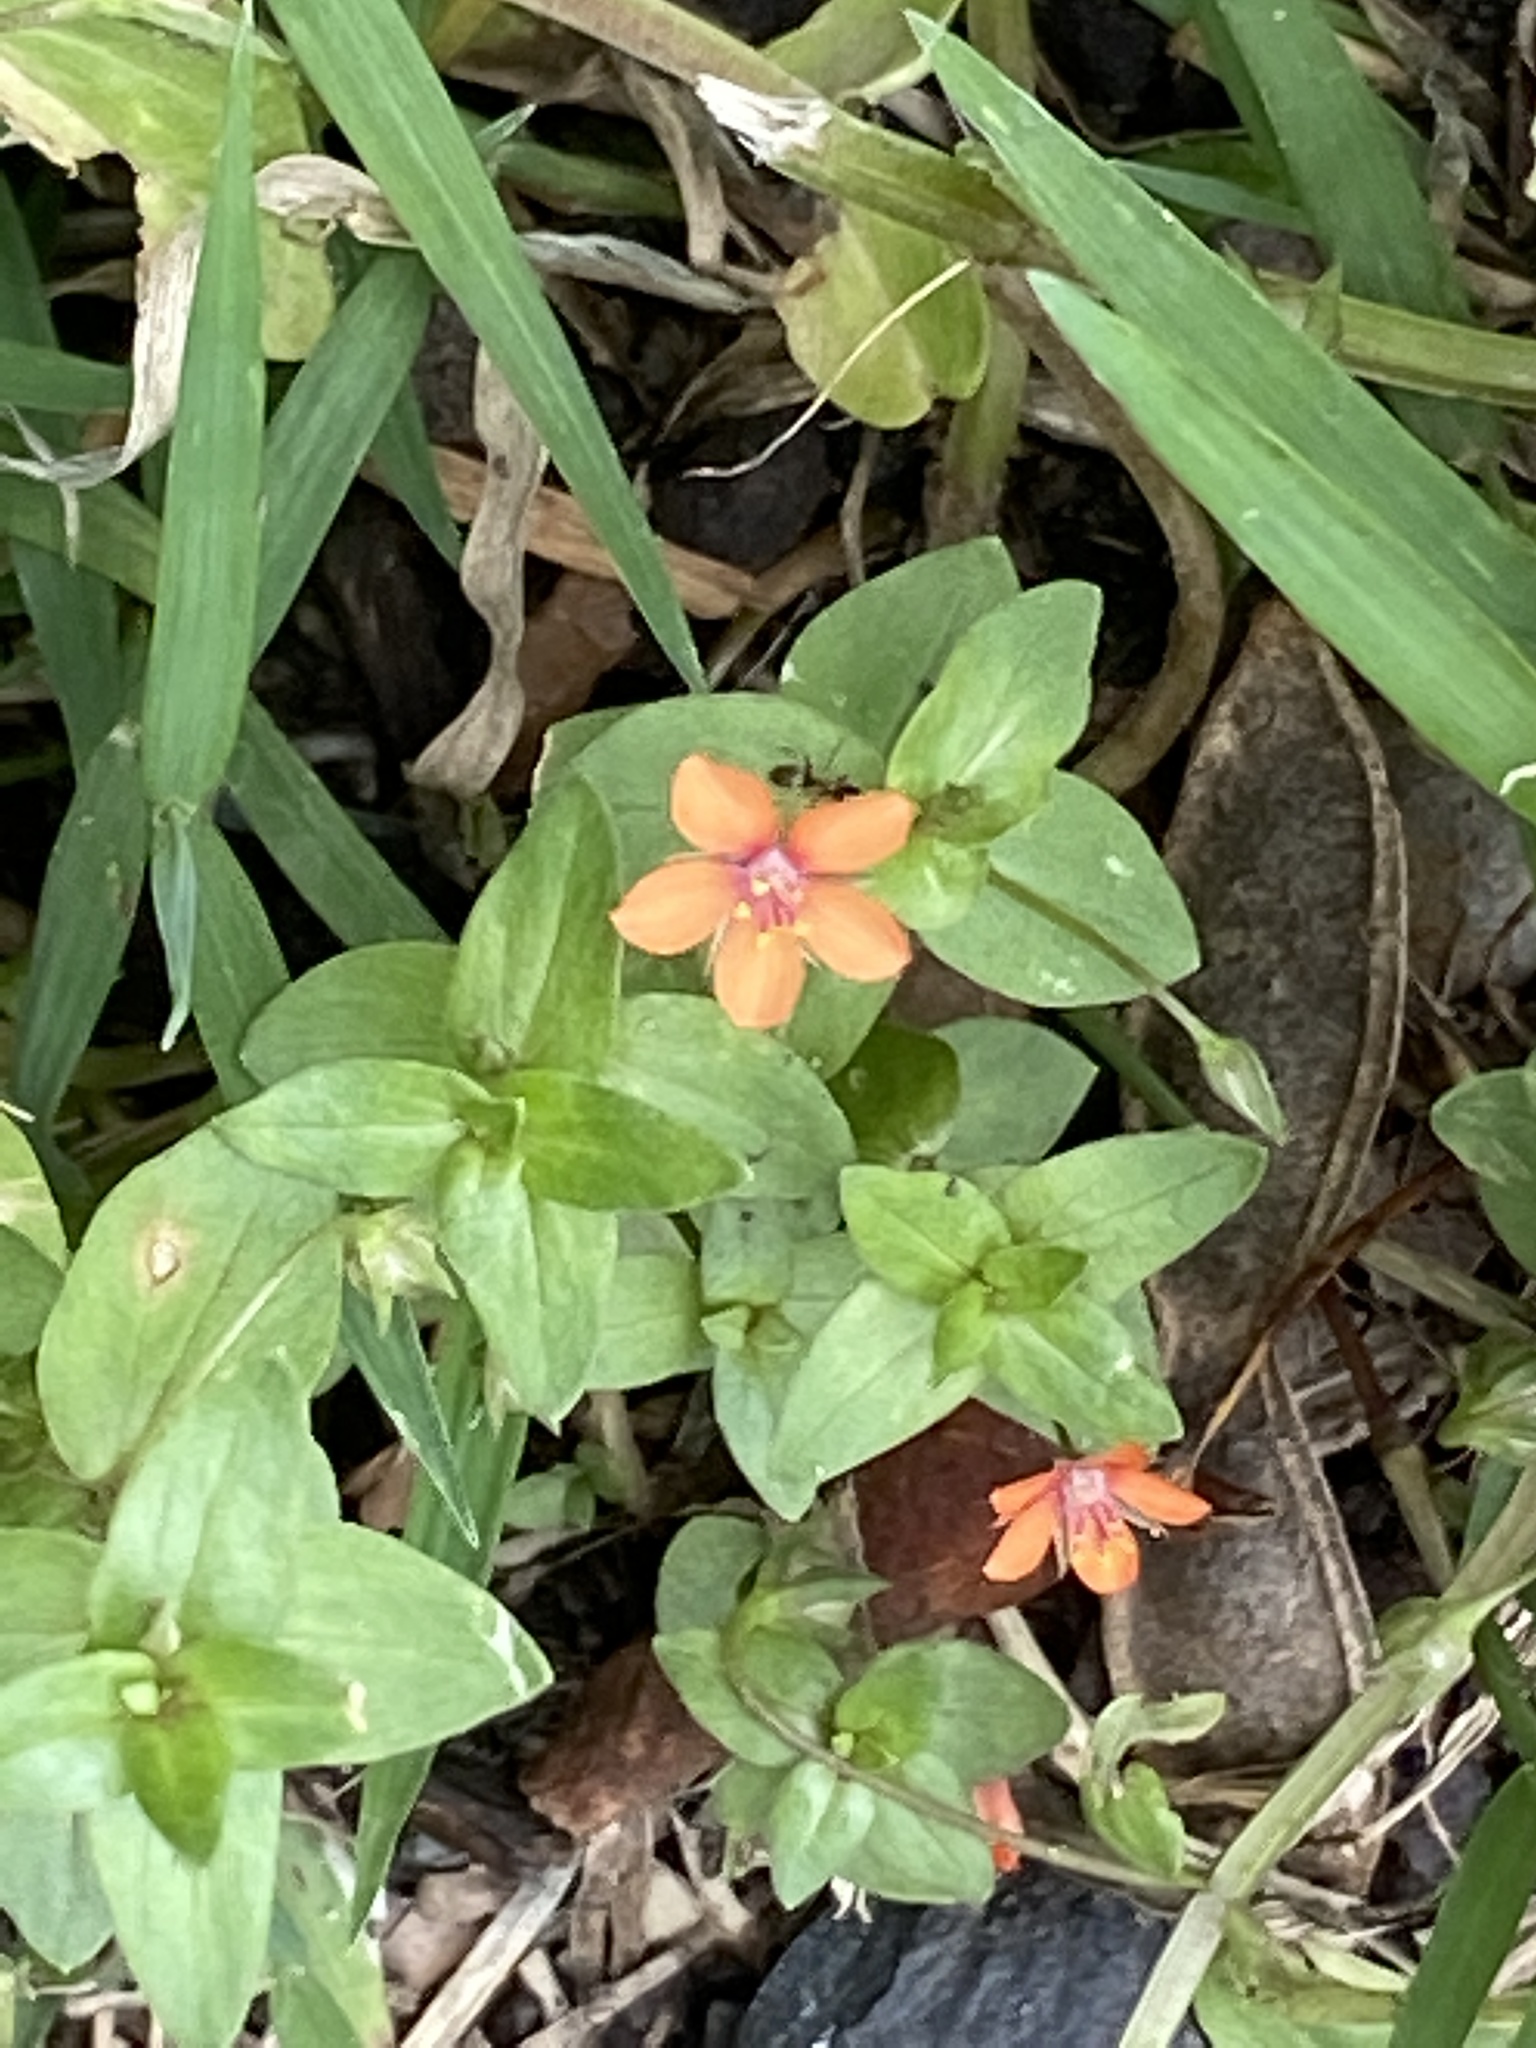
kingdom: Plantae
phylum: Tracheophyta
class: Magnoliopsida
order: Ericales
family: Primulaceae
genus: Lysimachia
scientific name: Lysimachia arvensis
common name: Scarlet pimpernel
